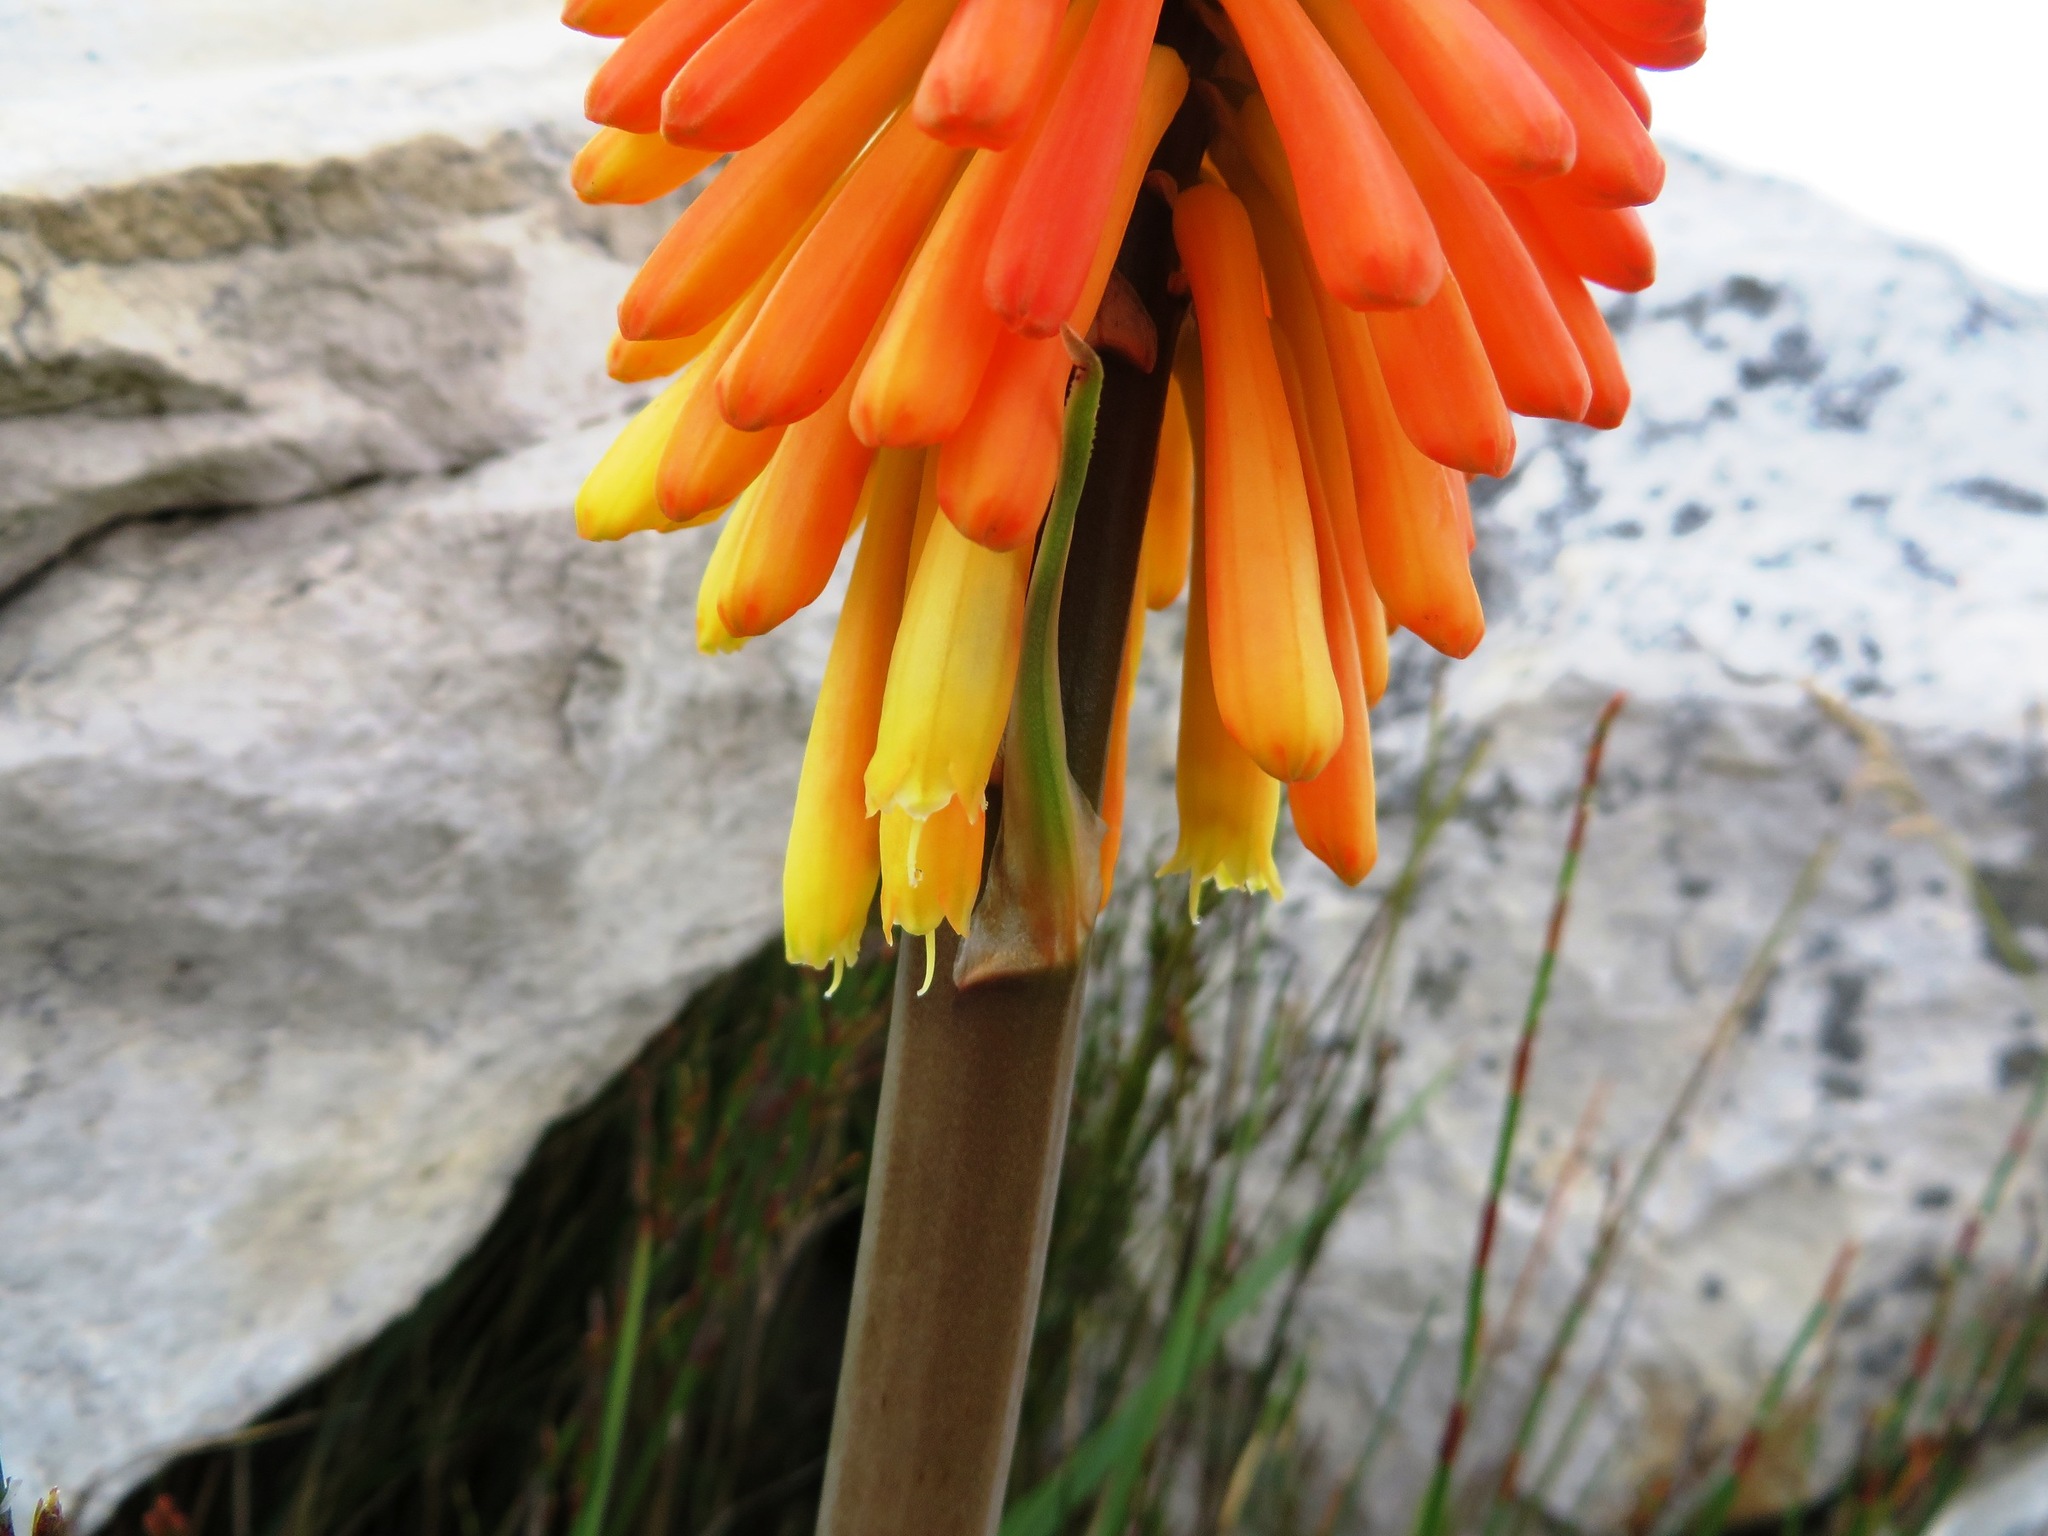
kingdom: Plantae
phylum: Tracheophyta
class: Liliopsida
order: Asparagales
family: Asphodelaceae
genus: Kniphofia
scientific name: Kniphofia uvaria
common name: Red-hot-poker
